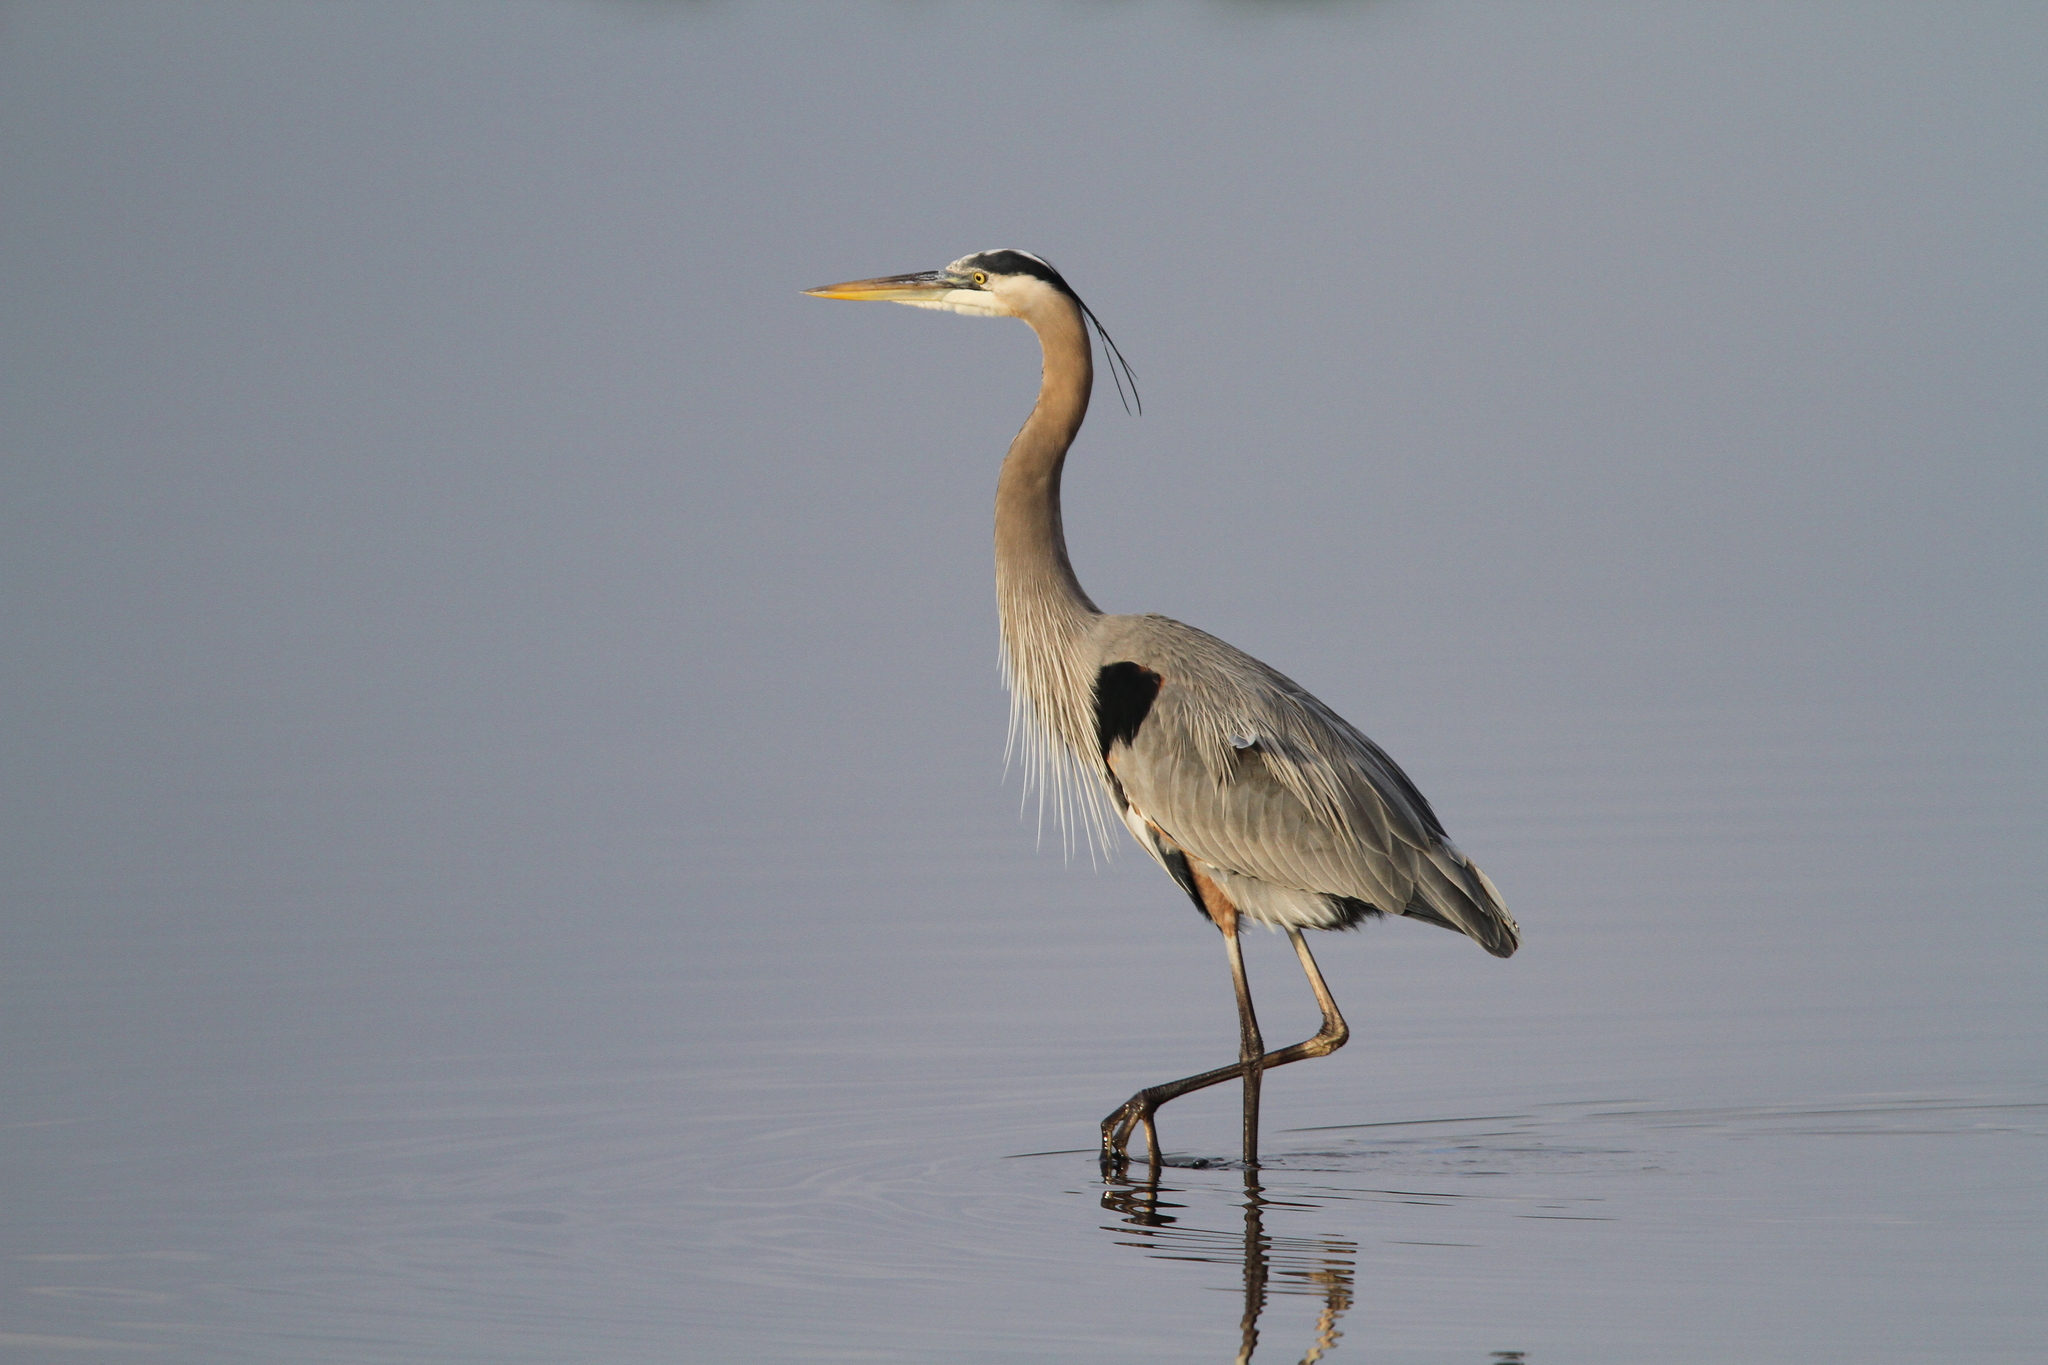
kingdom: Animalia
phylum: Chordata
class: Aves
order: Pelecaniformes
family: Ardeidae
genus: Ardea
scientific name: Ardea herodias
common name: Great blue heron
